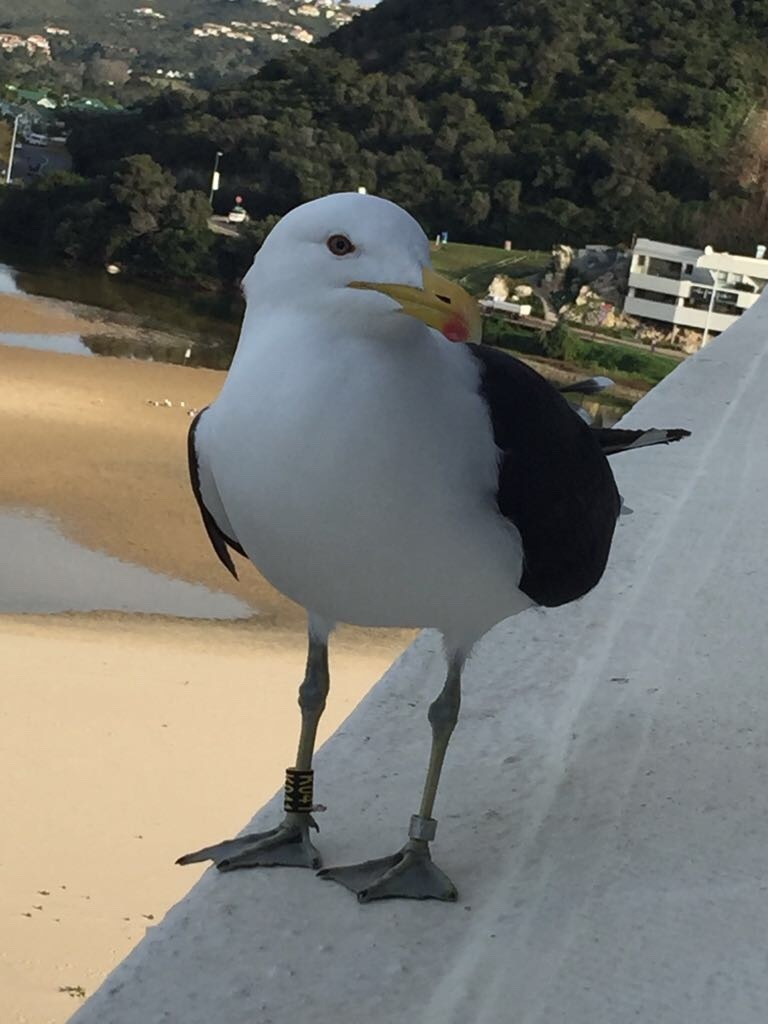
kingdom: Animalia
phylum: Chordata
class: Aves
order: Charadriiformes
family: Laridae
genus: Larus
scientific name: Larus dominicanus
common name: Kelp gull
